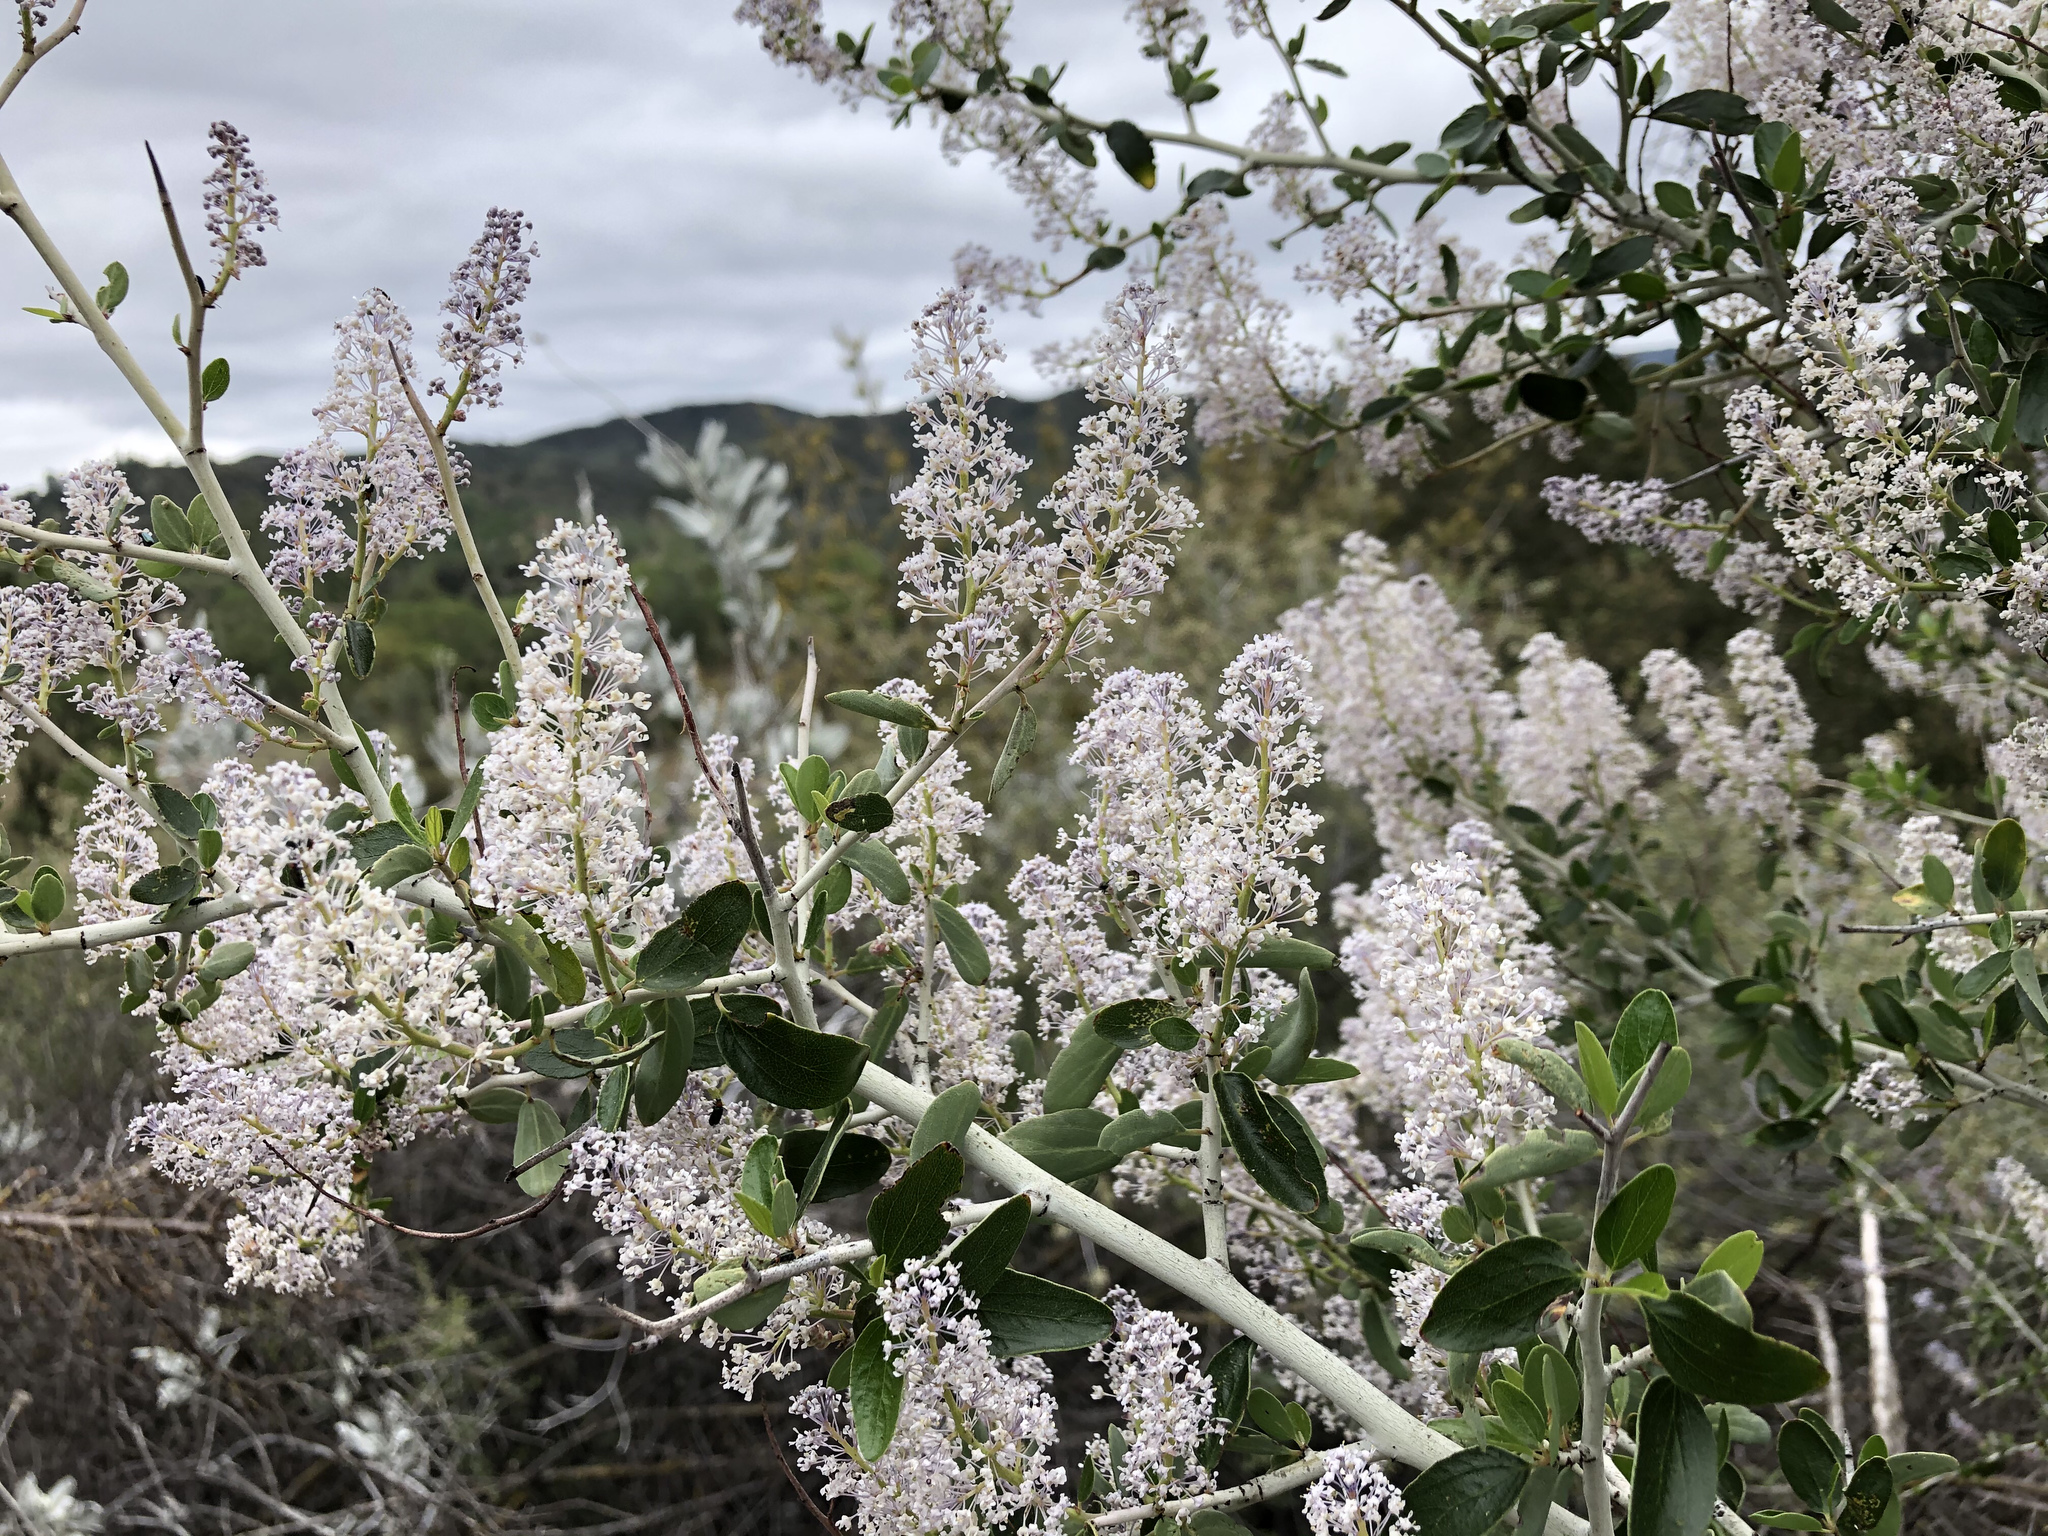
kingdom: Plantae
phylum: Tracheophyta
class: Magnoliopsida
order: Rosales
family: Rhamnaceae
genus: Ceanothus
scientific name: Ceanothus leucodermis
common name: Chaparral whitethorn
